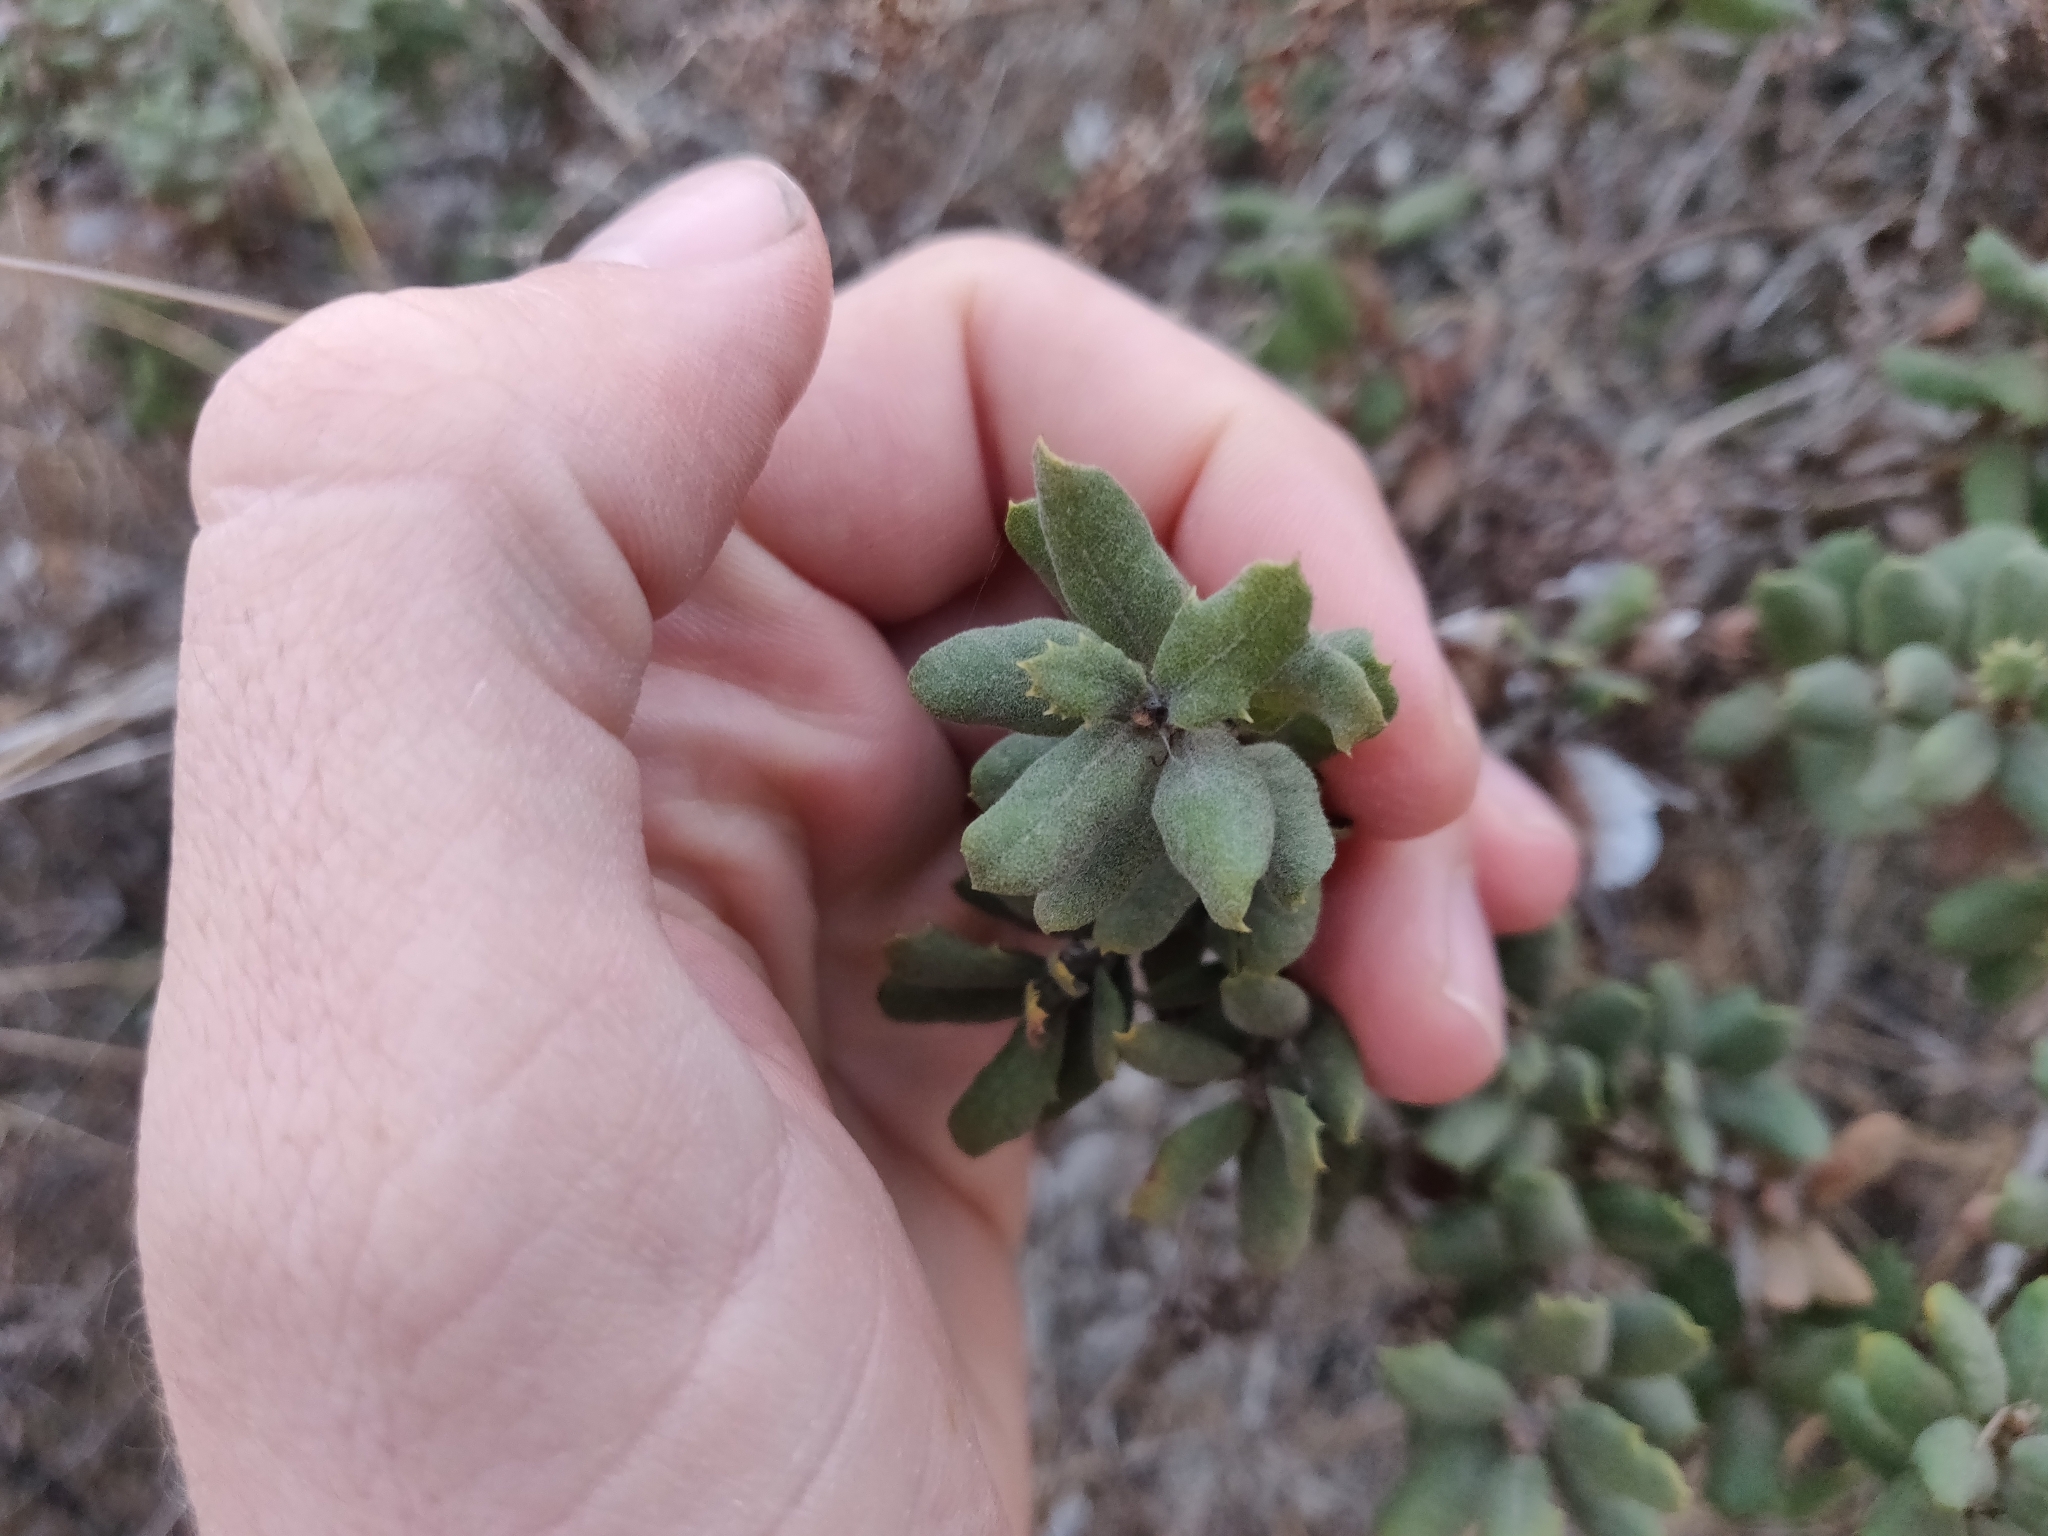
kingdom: Plantae
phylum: Tracheophyta
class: Magnoliopsida
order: Fagales
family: Fagaceae
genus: Quercus
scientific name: Quercus durata
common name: Leather oak
